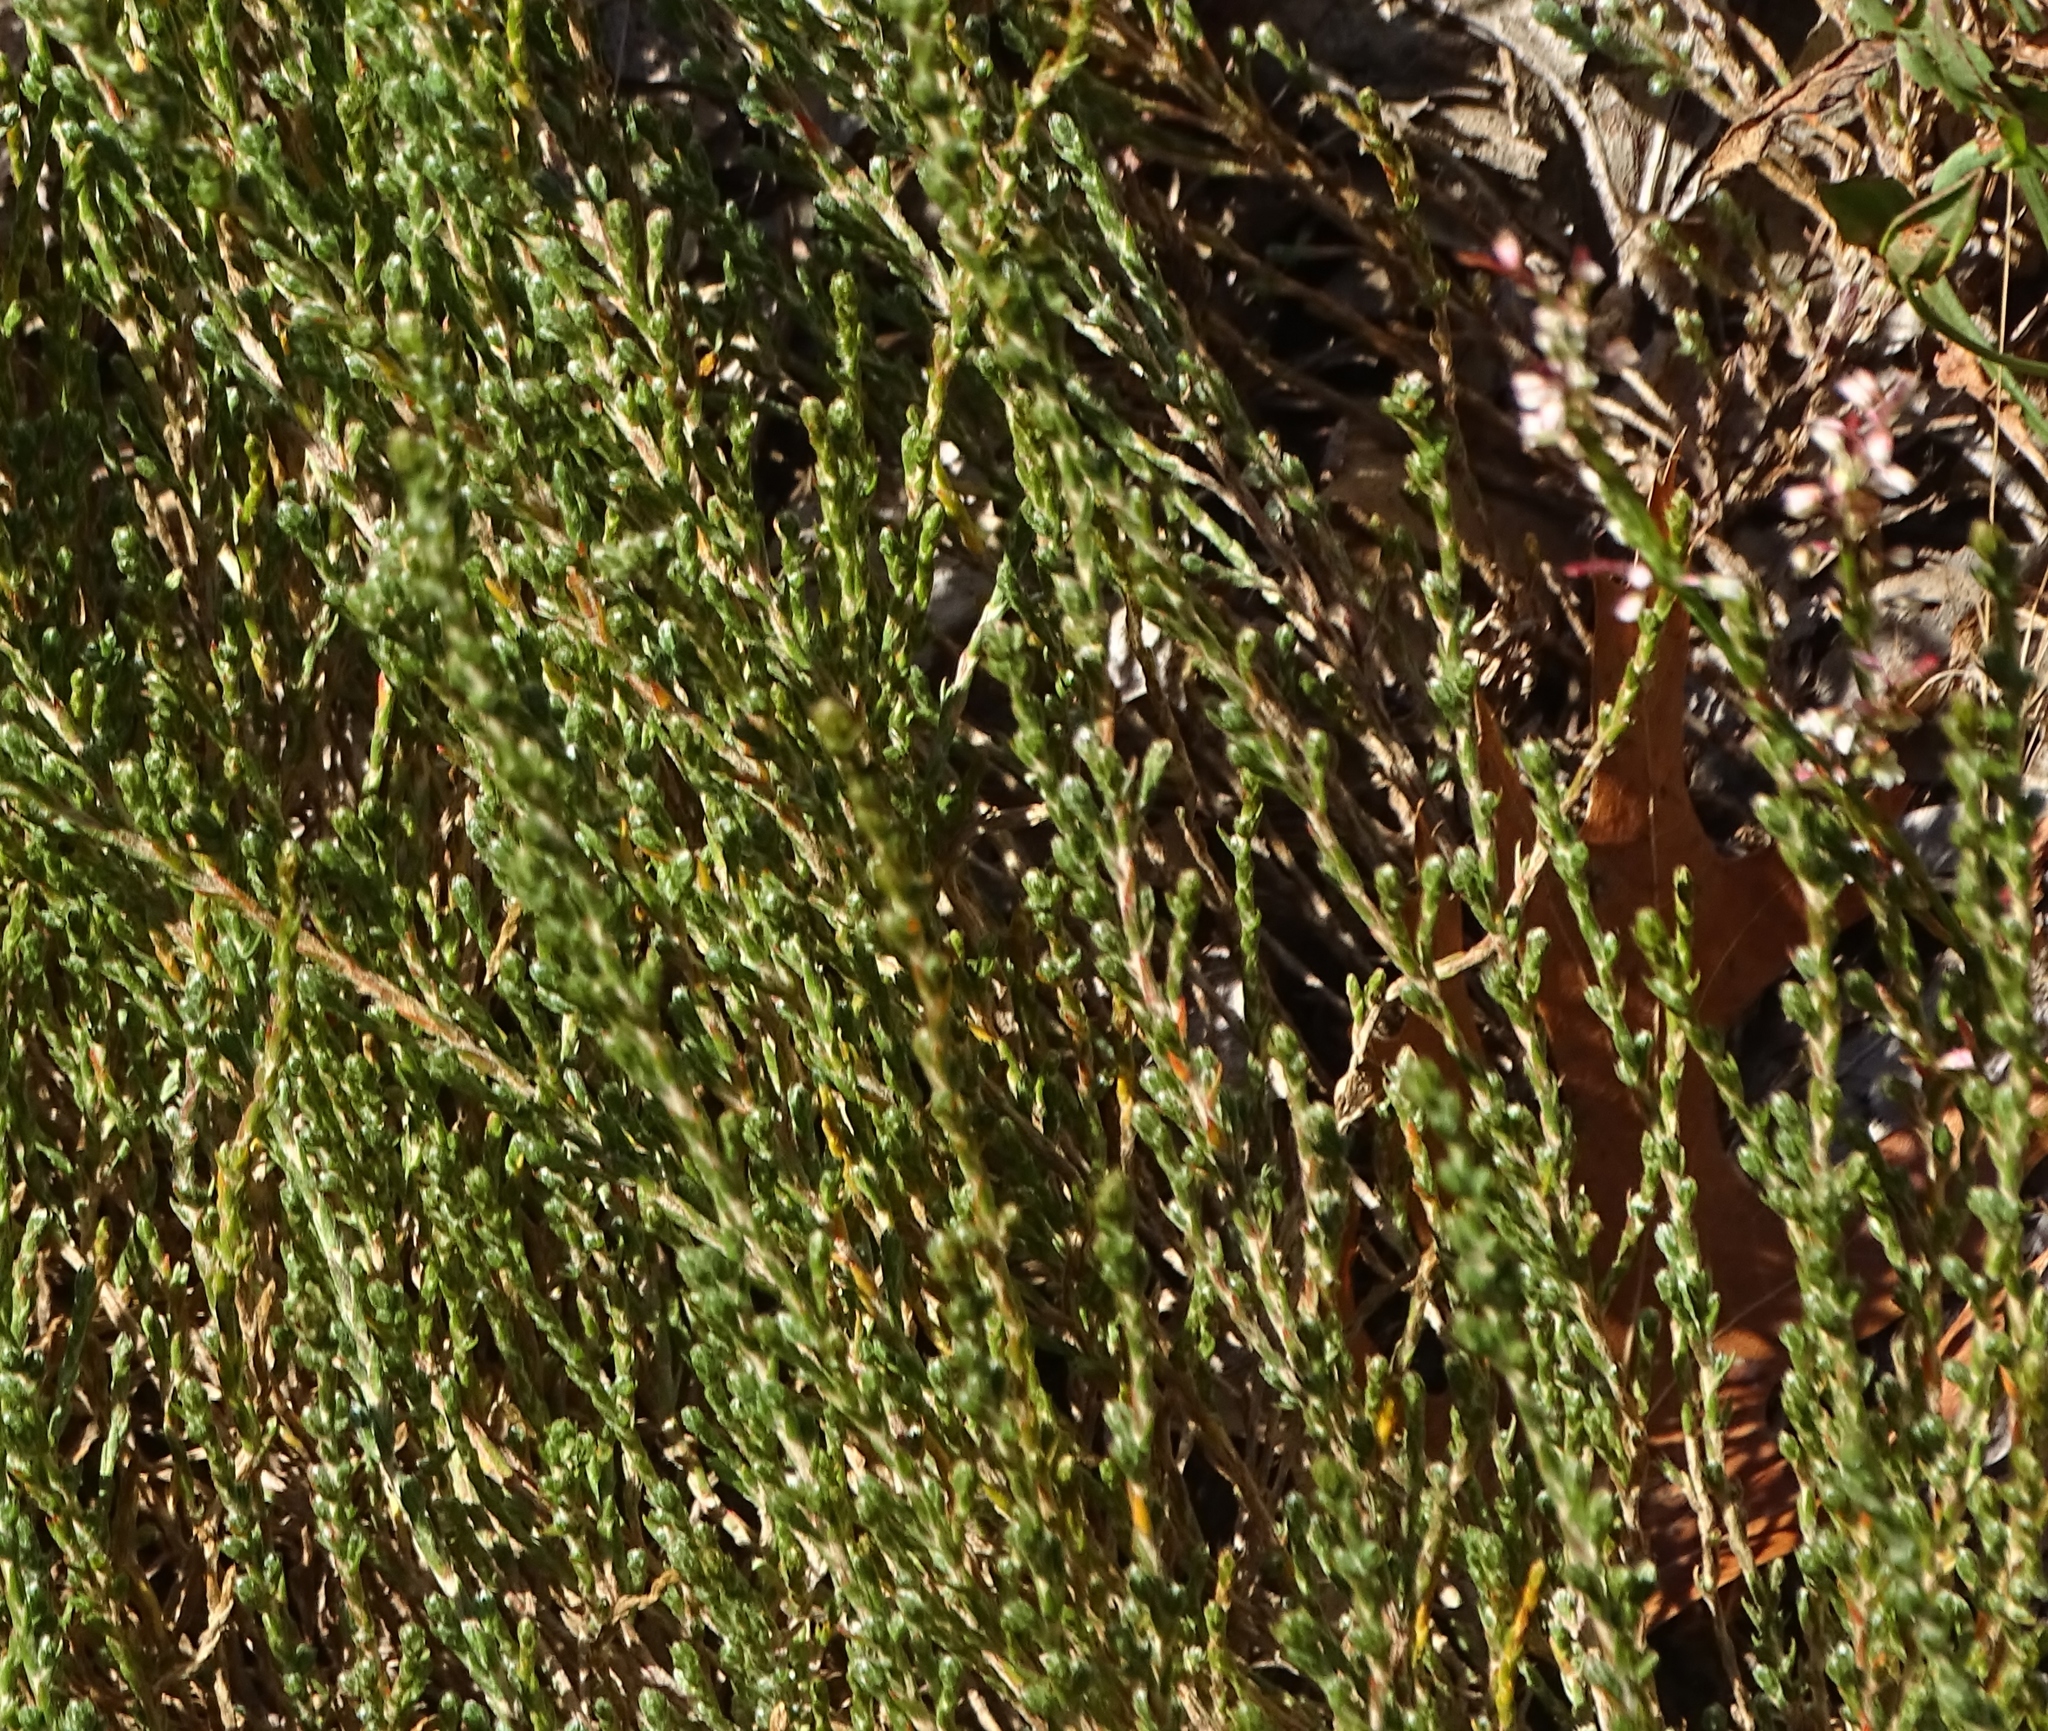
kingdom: Plantae
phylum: Tracheophyta
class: Magnoliopsida
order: Malvales
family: Cistaceae
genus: Hudsonia
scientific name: Hudsonia tomentosa
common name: Beach-heath
